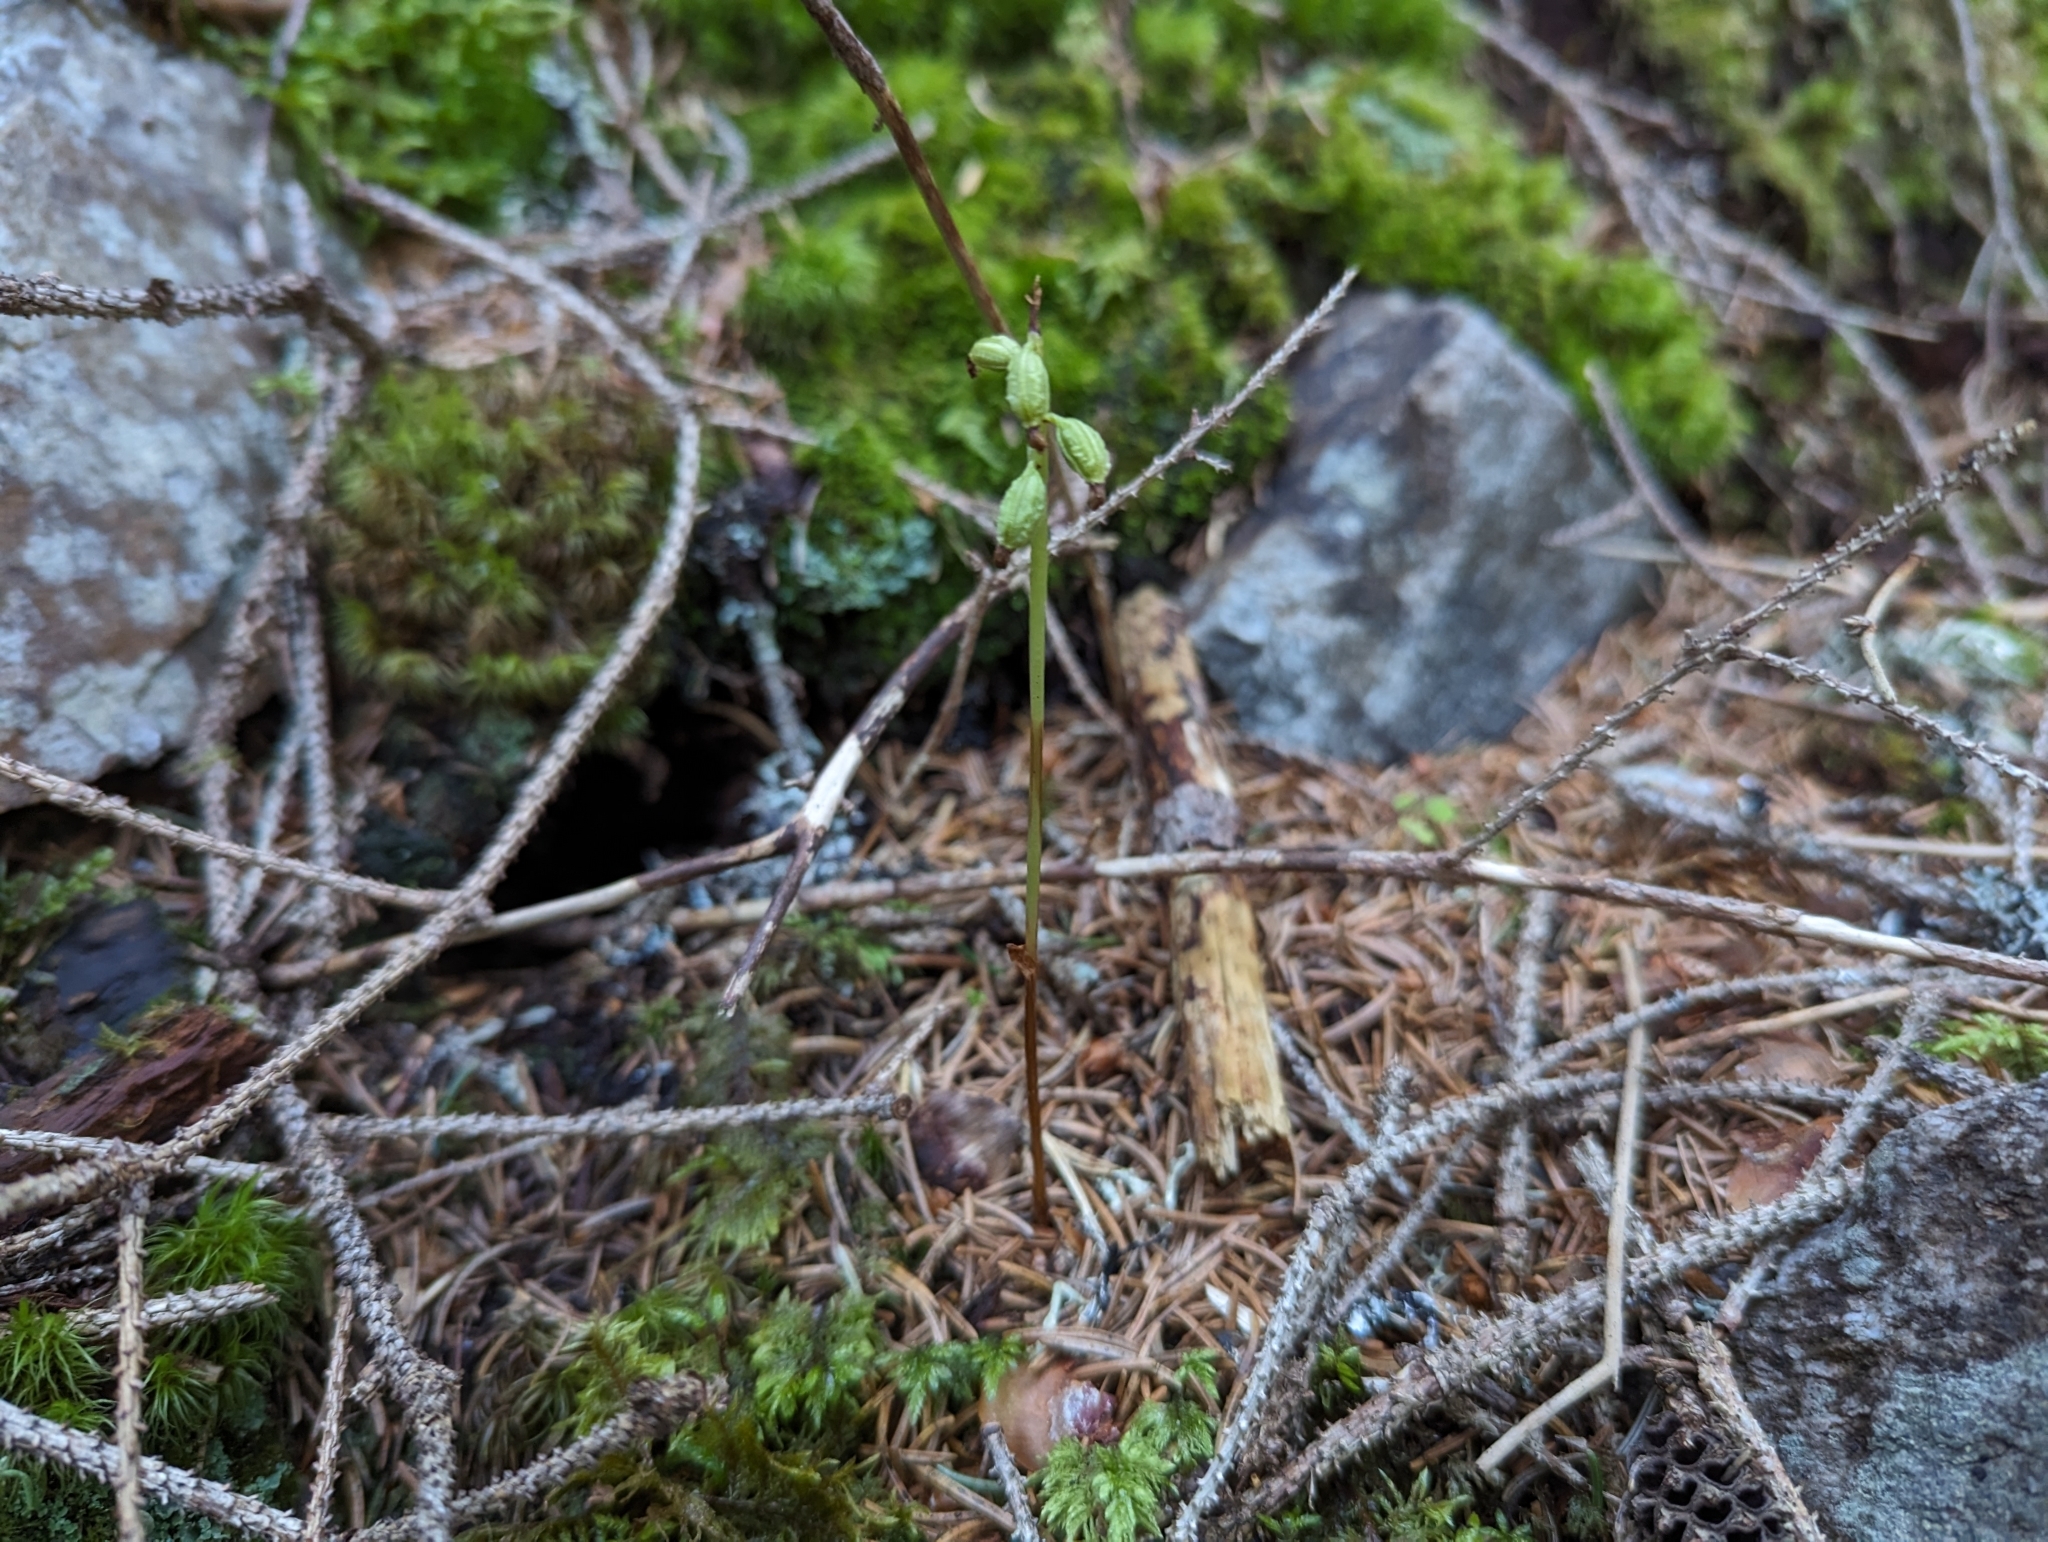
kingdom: Plantae
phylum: Tracheophyta
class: Liliopsida
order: Asparagales
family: Orchidaceae
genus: Corallorhiza
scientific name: Corallorhiza trifida
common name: Yellow coralroot
